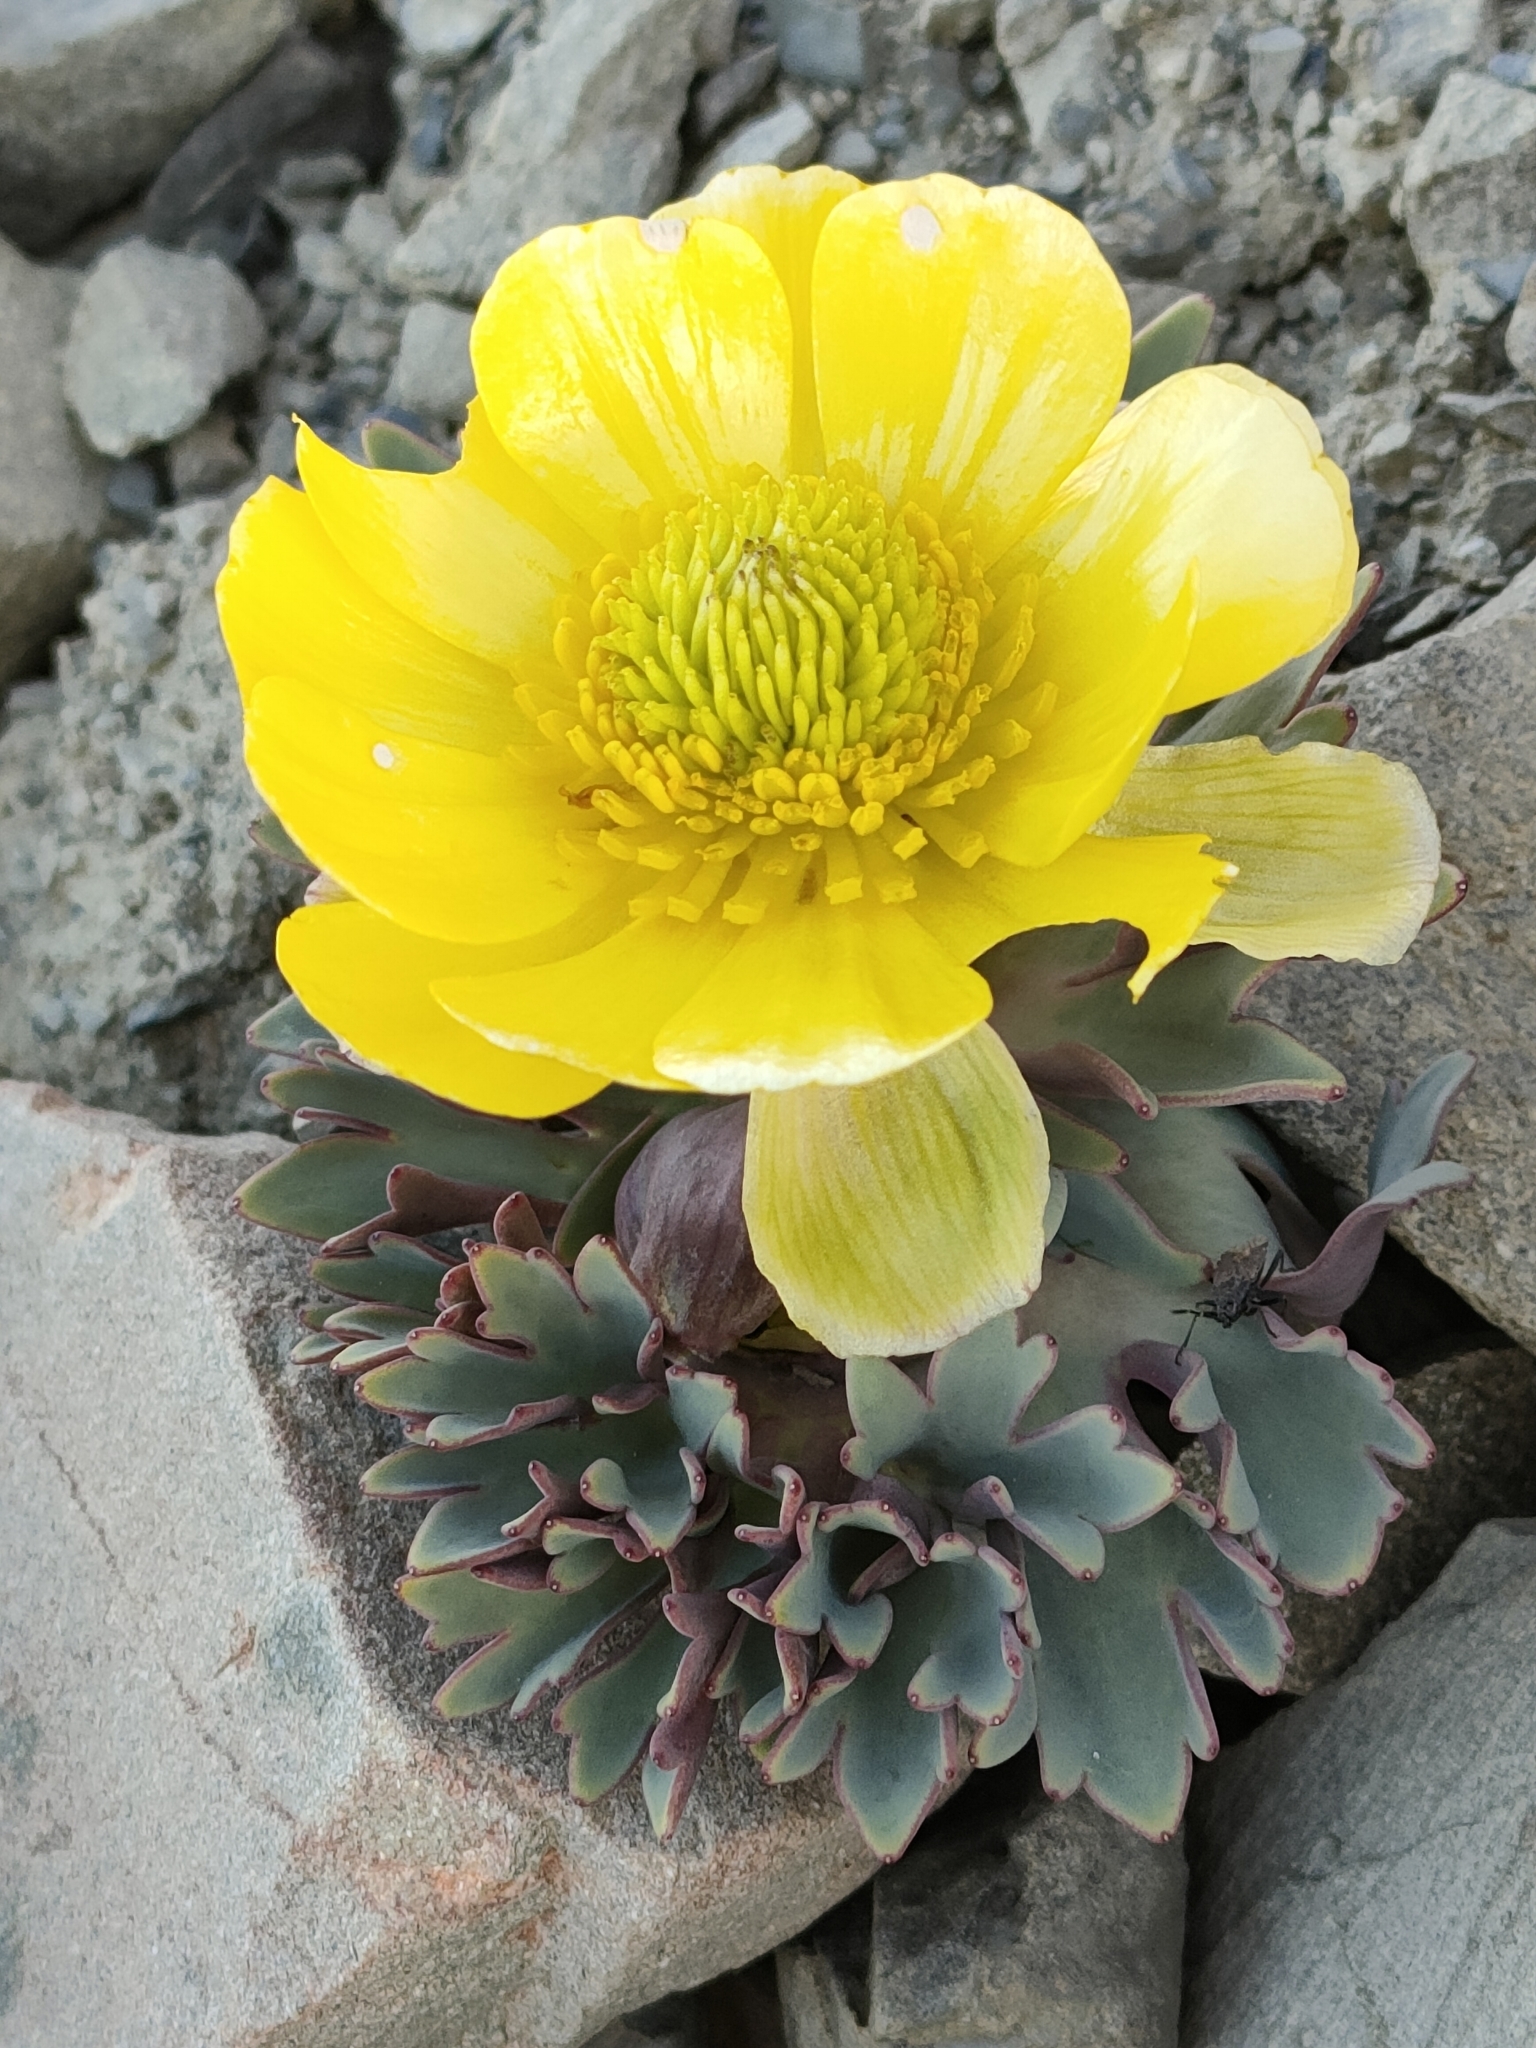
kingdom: Plantae
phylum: Tracheophyta
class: Magnoliopsida
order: Ranunculales
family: Ranunculaceae
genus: Ranunculus
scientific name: Ranunculus haastii
